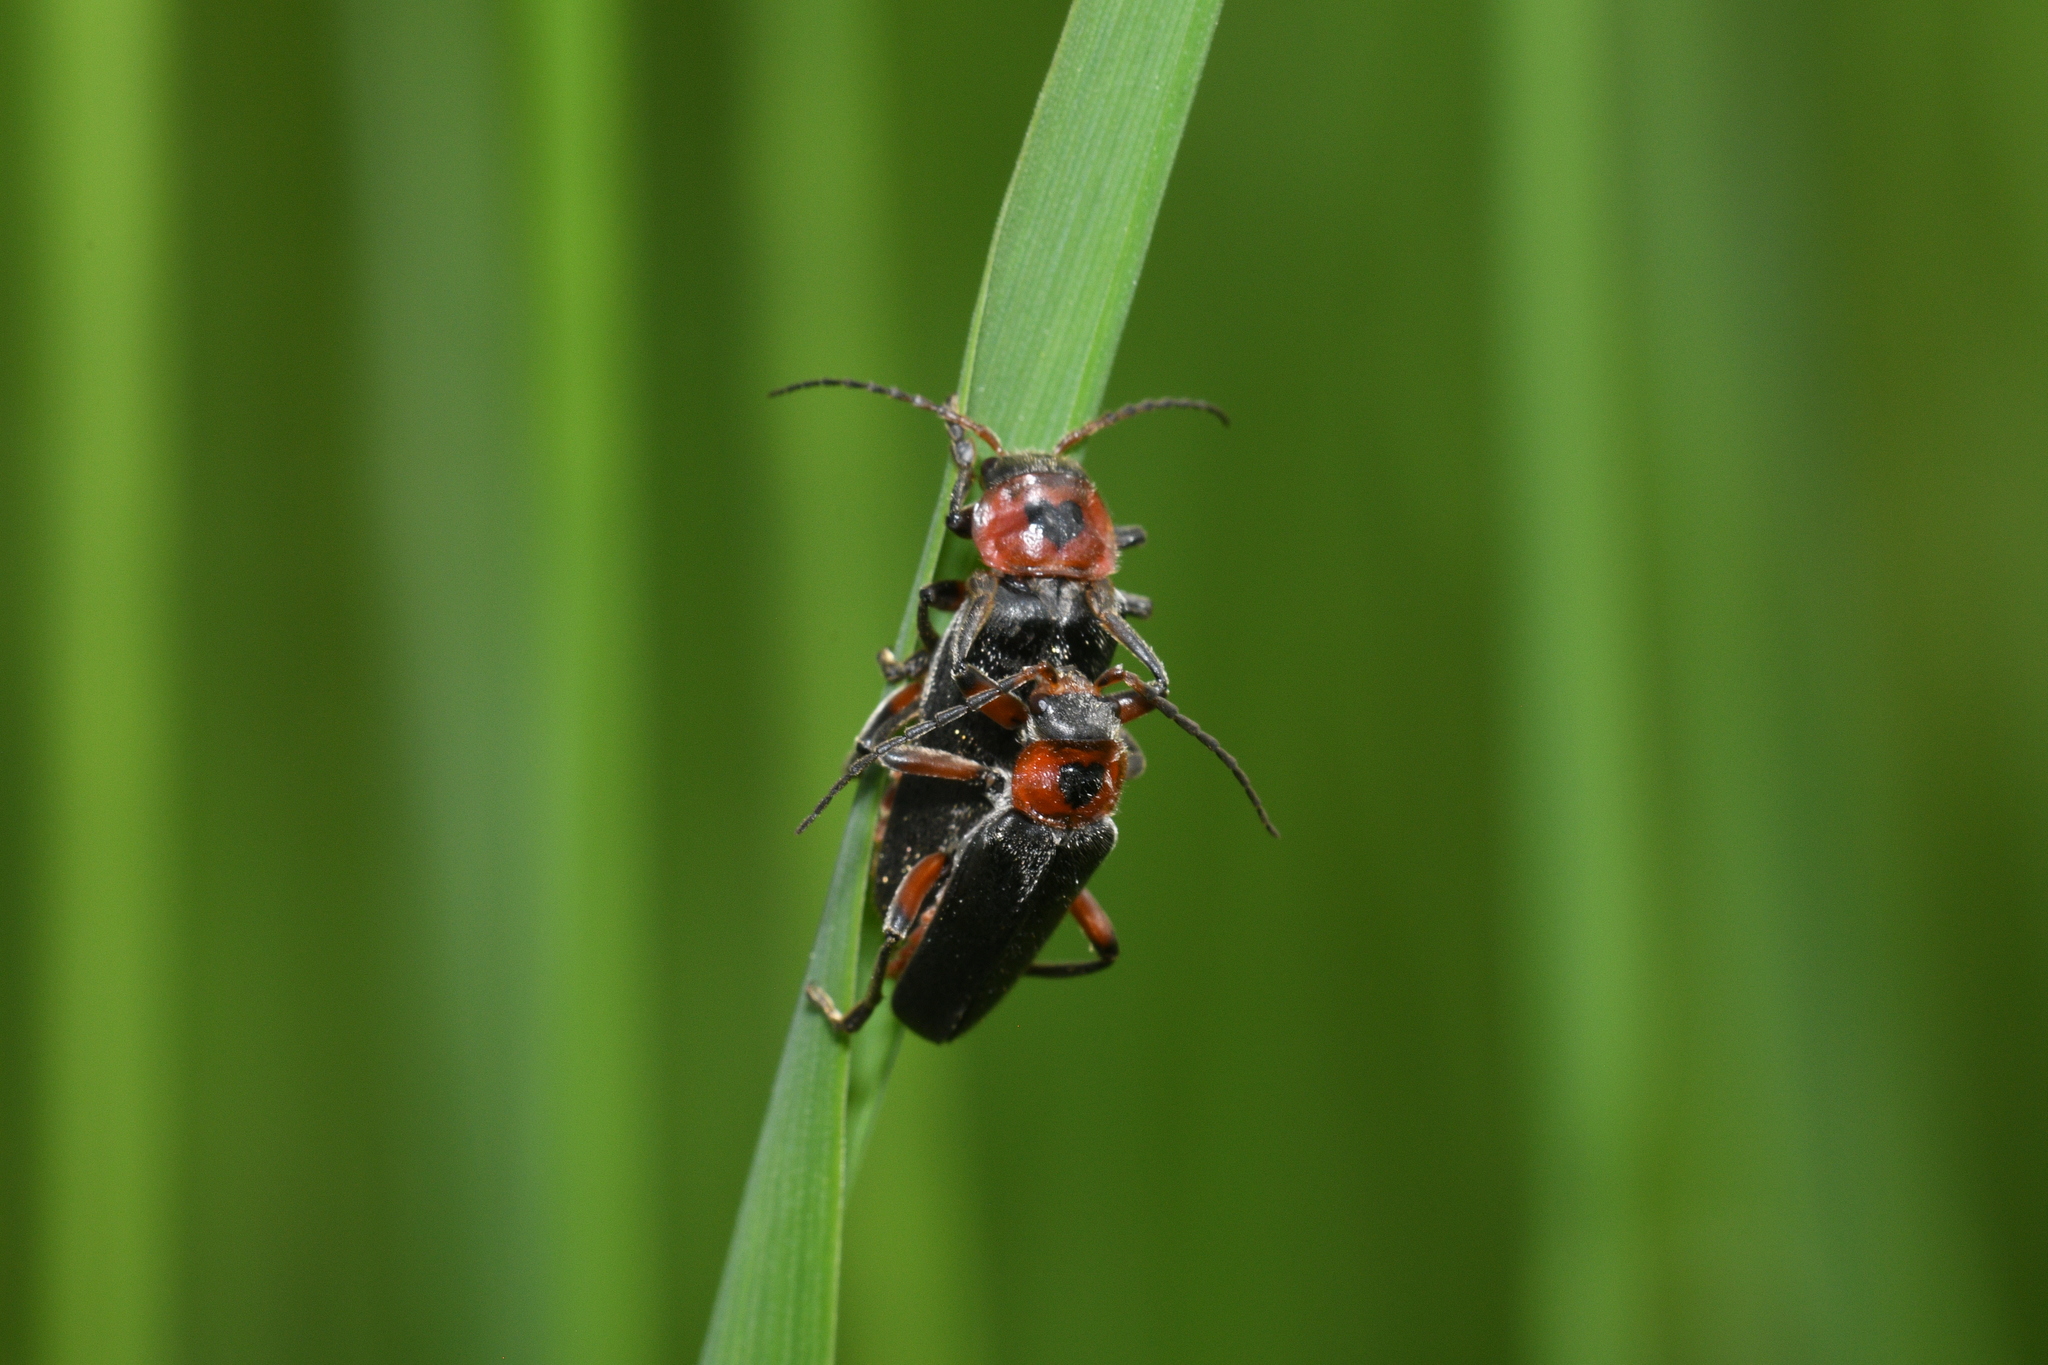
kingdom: Animalia
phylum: Arthropoda
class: Insecta
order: Coleoptera
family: Cantharidae
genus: Cantharis
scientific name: Cantharis rustica
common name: Soldier beetle
